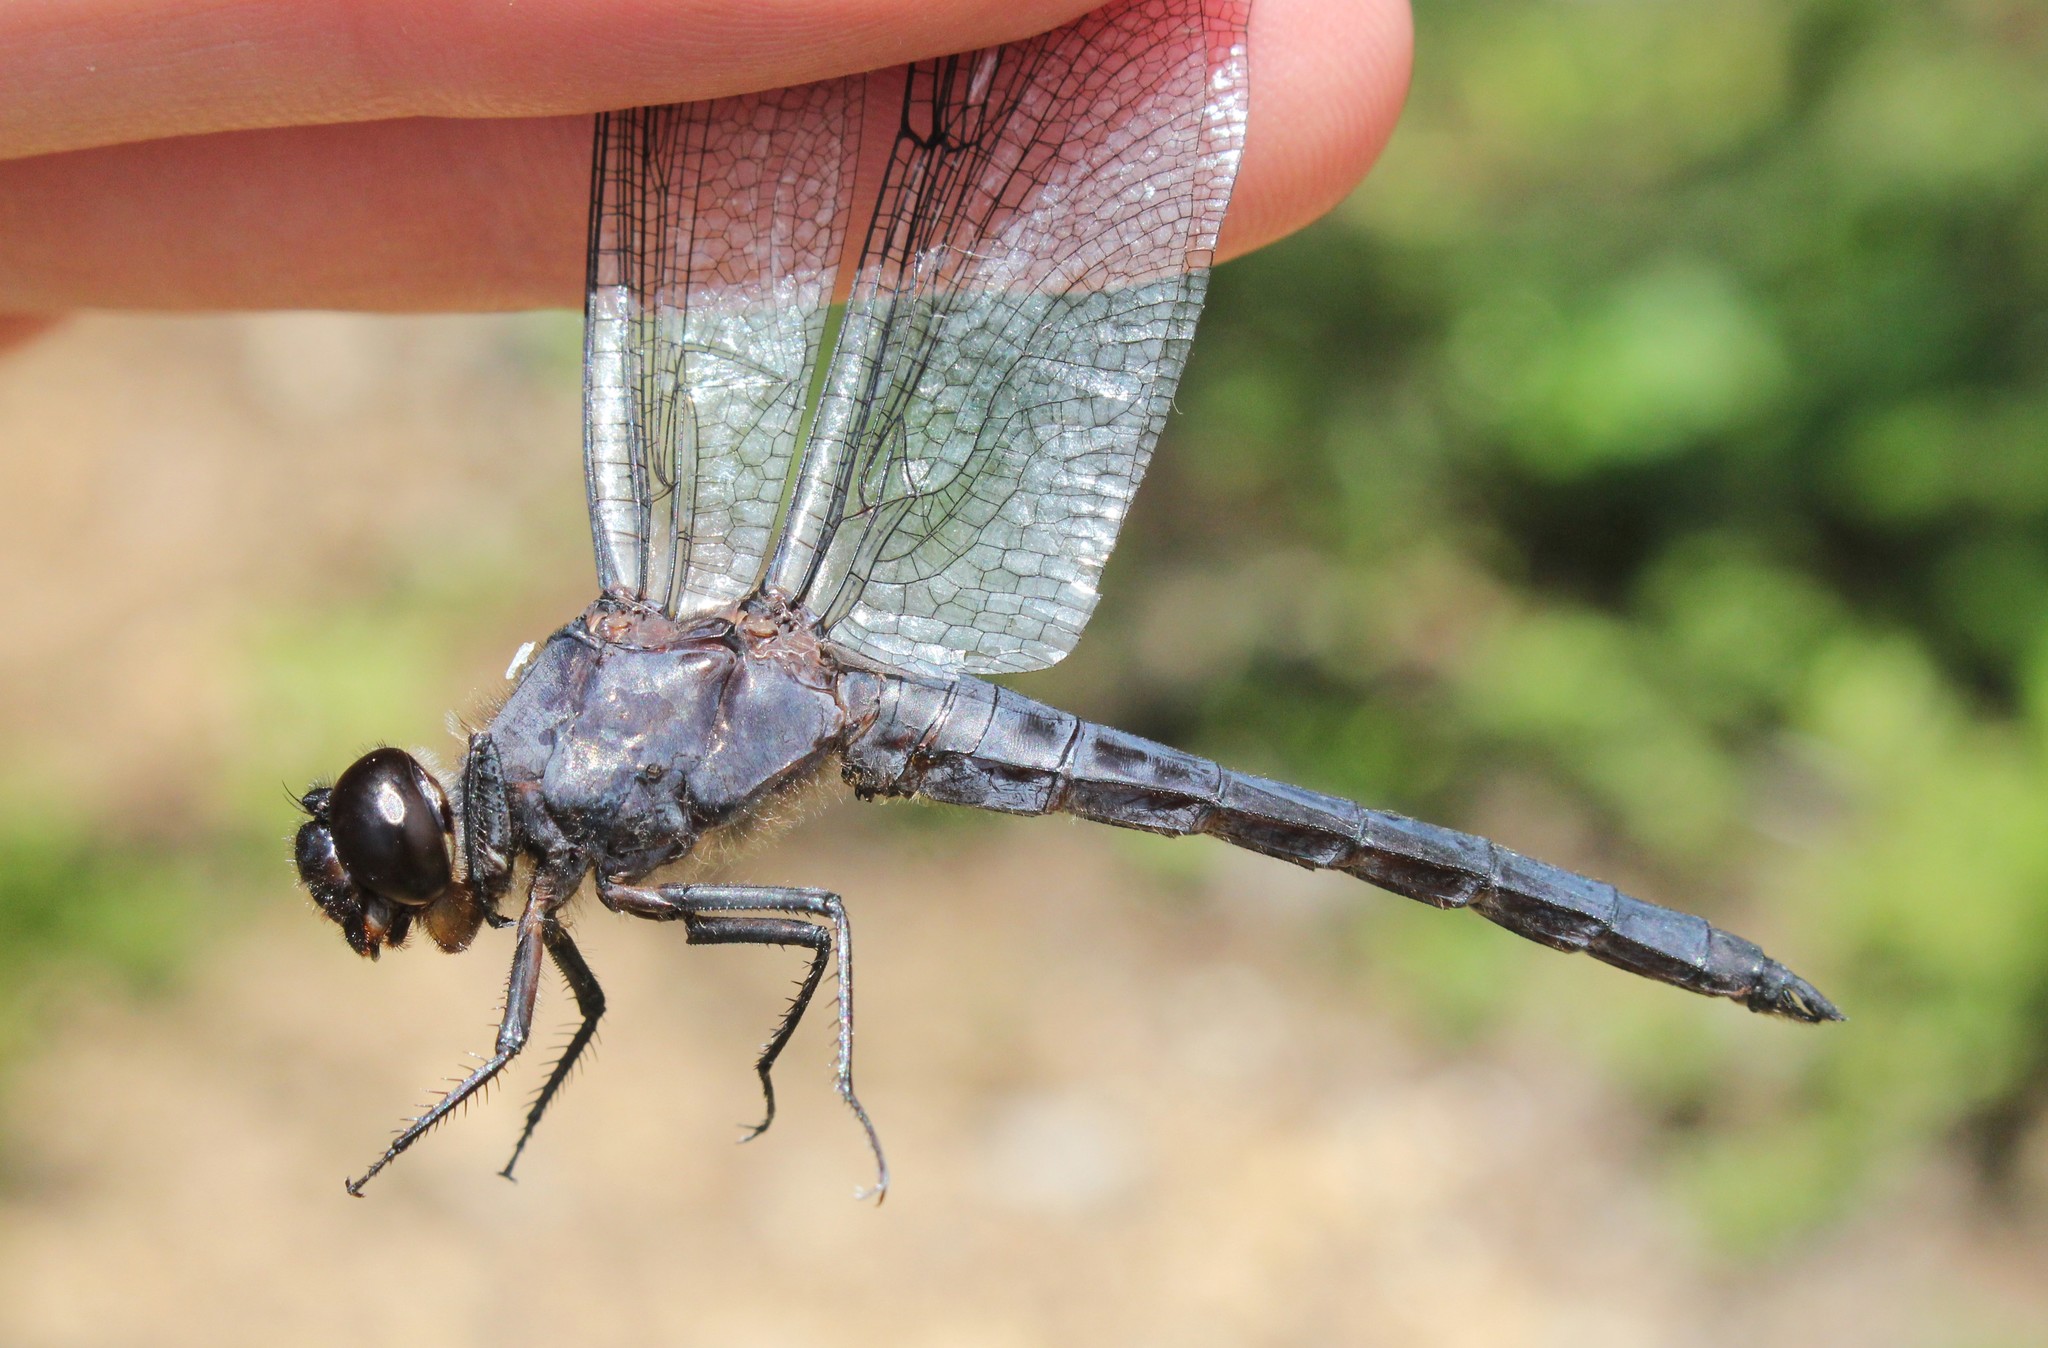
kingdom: Animalia
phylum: Arthropoda
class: Insecta
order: Odonata
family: Libellulidae
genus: Libellula
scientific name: Libellula incesta
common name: Slaty skimmer
